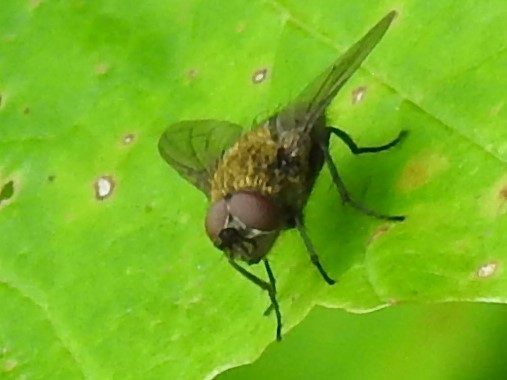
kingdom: Animalia
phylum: Arthropoda
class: Insecta
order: Diptera
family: Polleniidae
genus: Pollenia
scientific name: Pollenia
